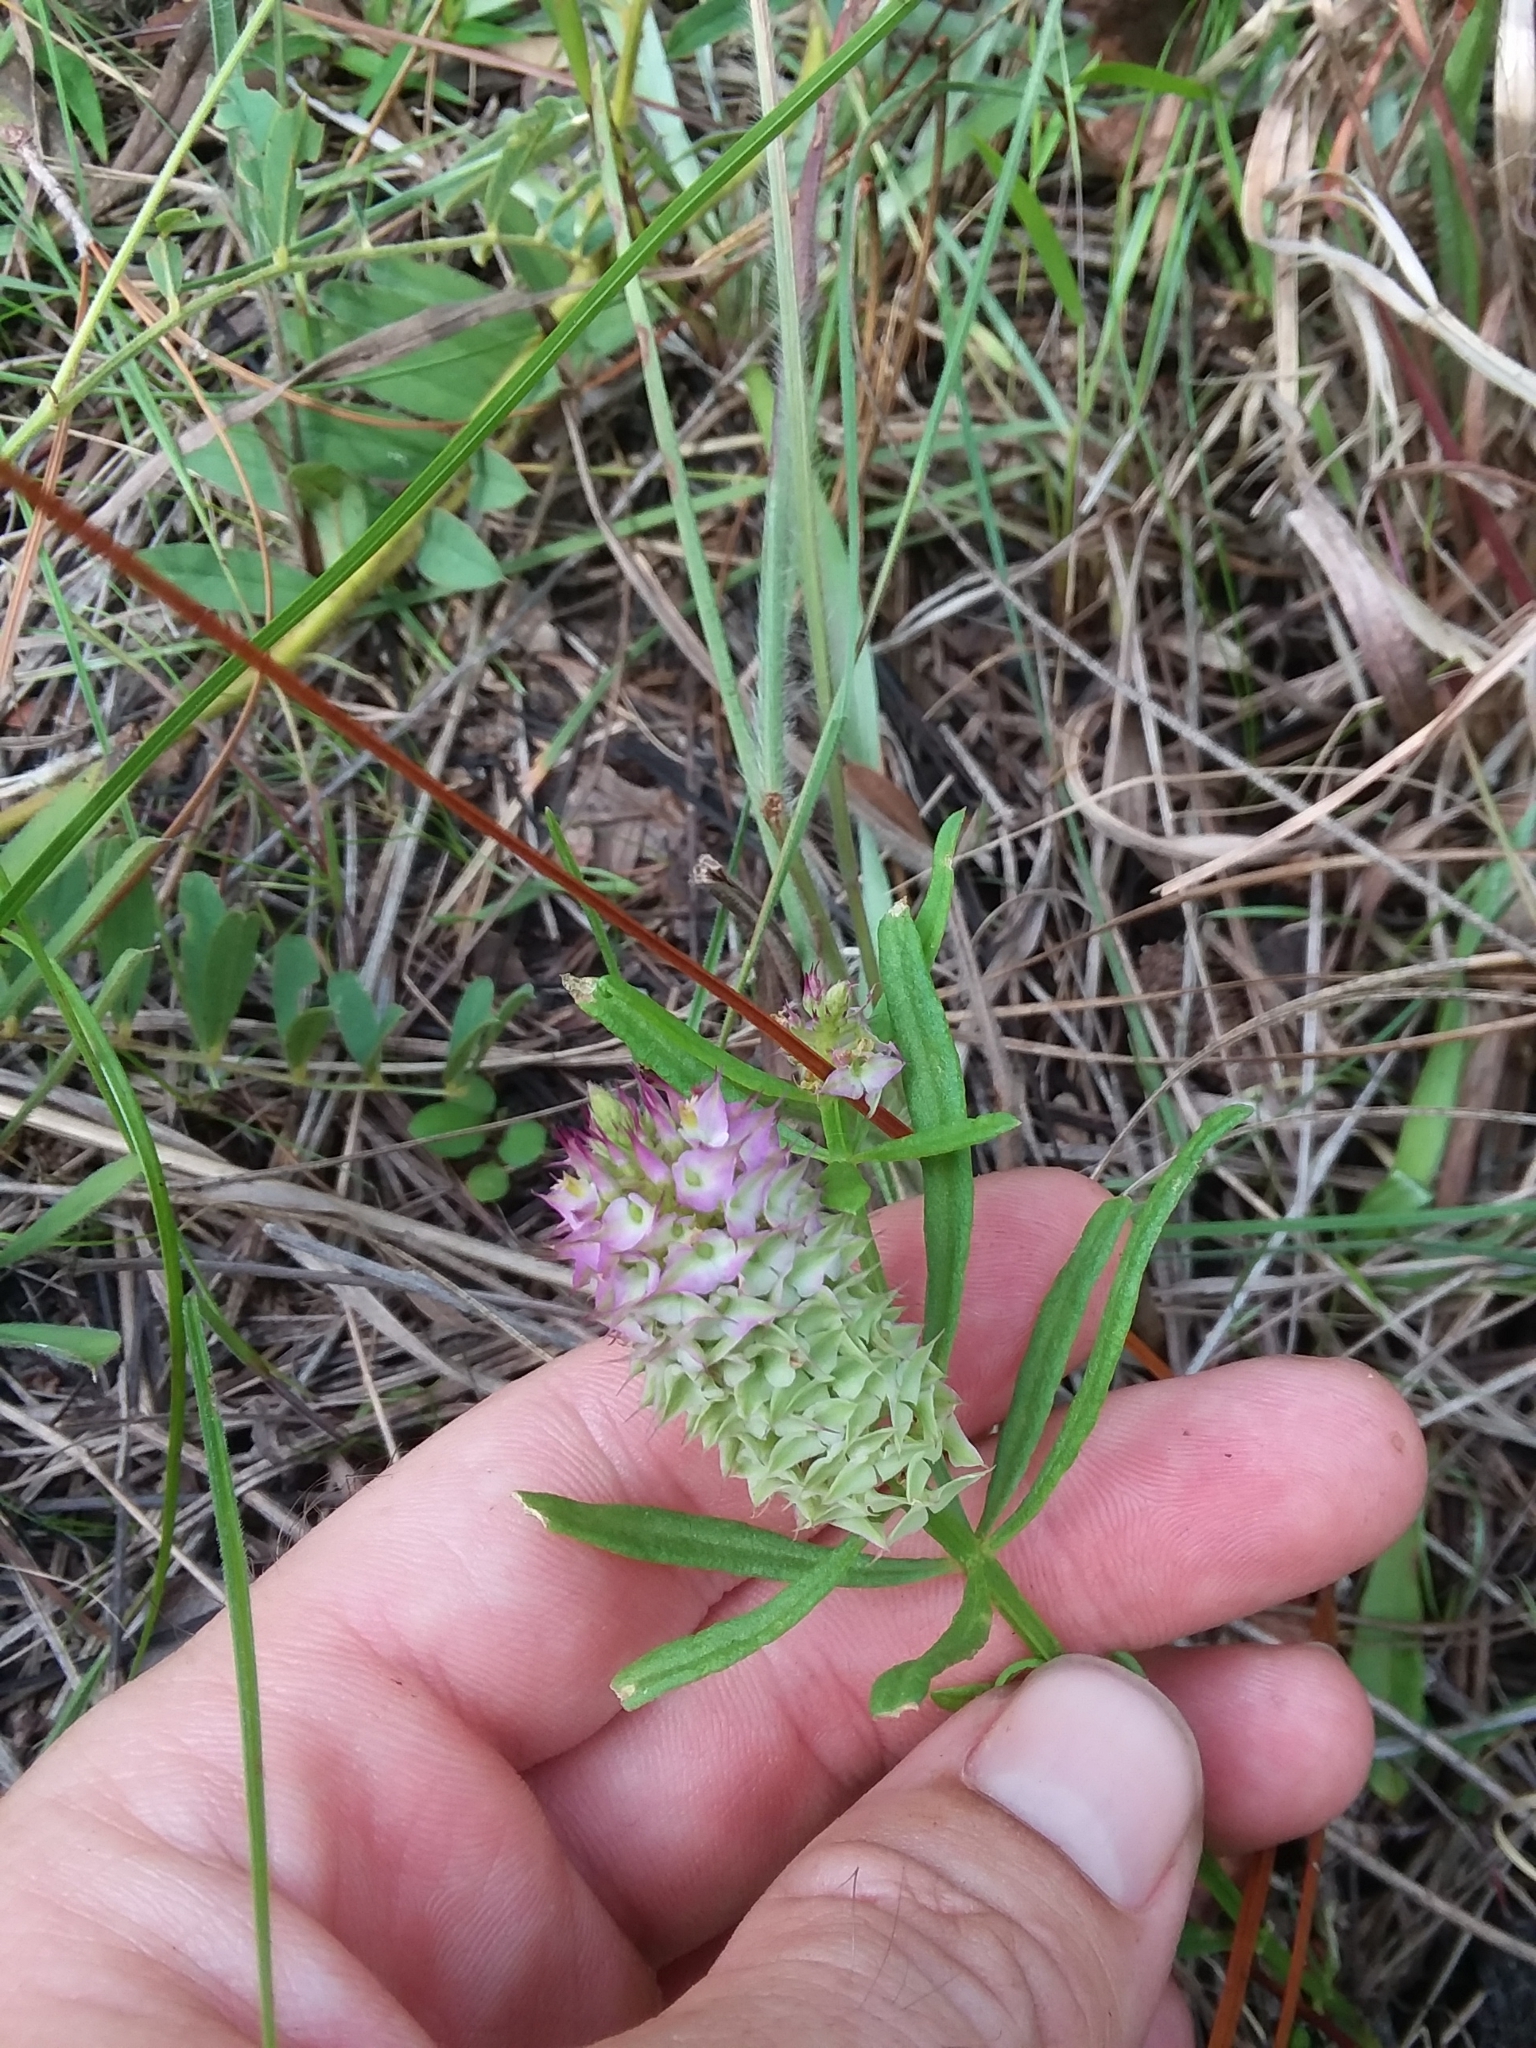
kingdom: Plantae
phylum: Tracheophyta
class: Magnoliopsida
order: Fabales
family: Polygalaceae
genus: Polygala
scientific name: Polygala cruciata
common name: Drumheads
